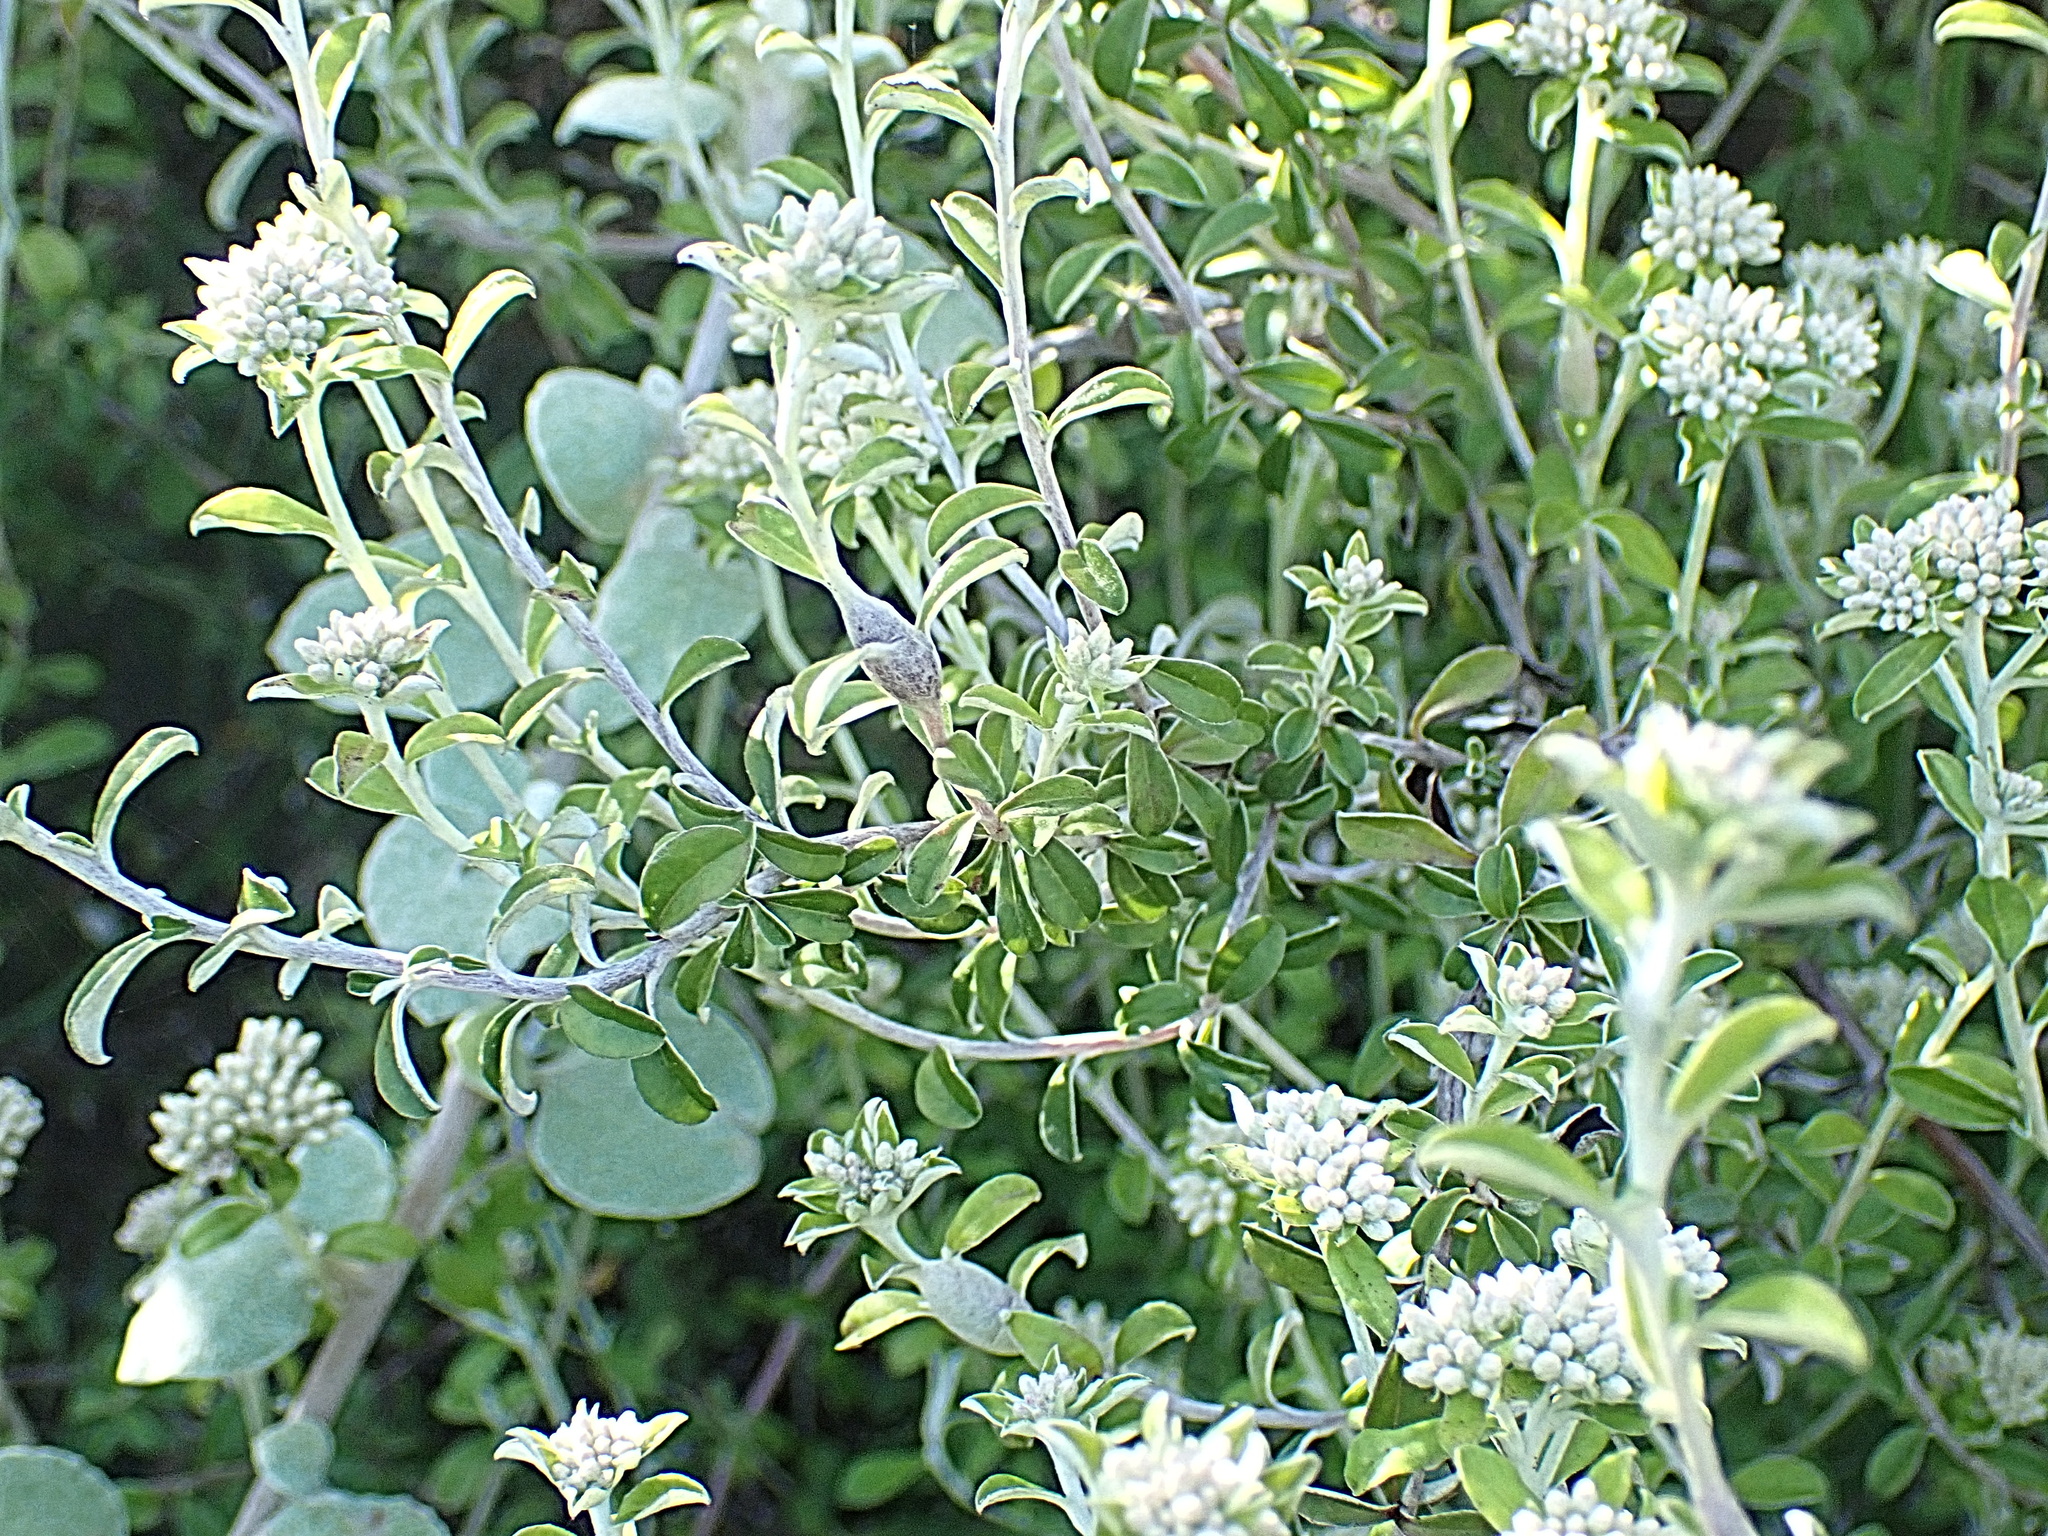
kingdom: Plantae
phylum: Tracheophyta
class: Magnoliopsida
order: Asterales
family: Asteraceae
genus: Plecostachys
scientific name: Plecostachys serpyllifolia
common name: Petite licorice
